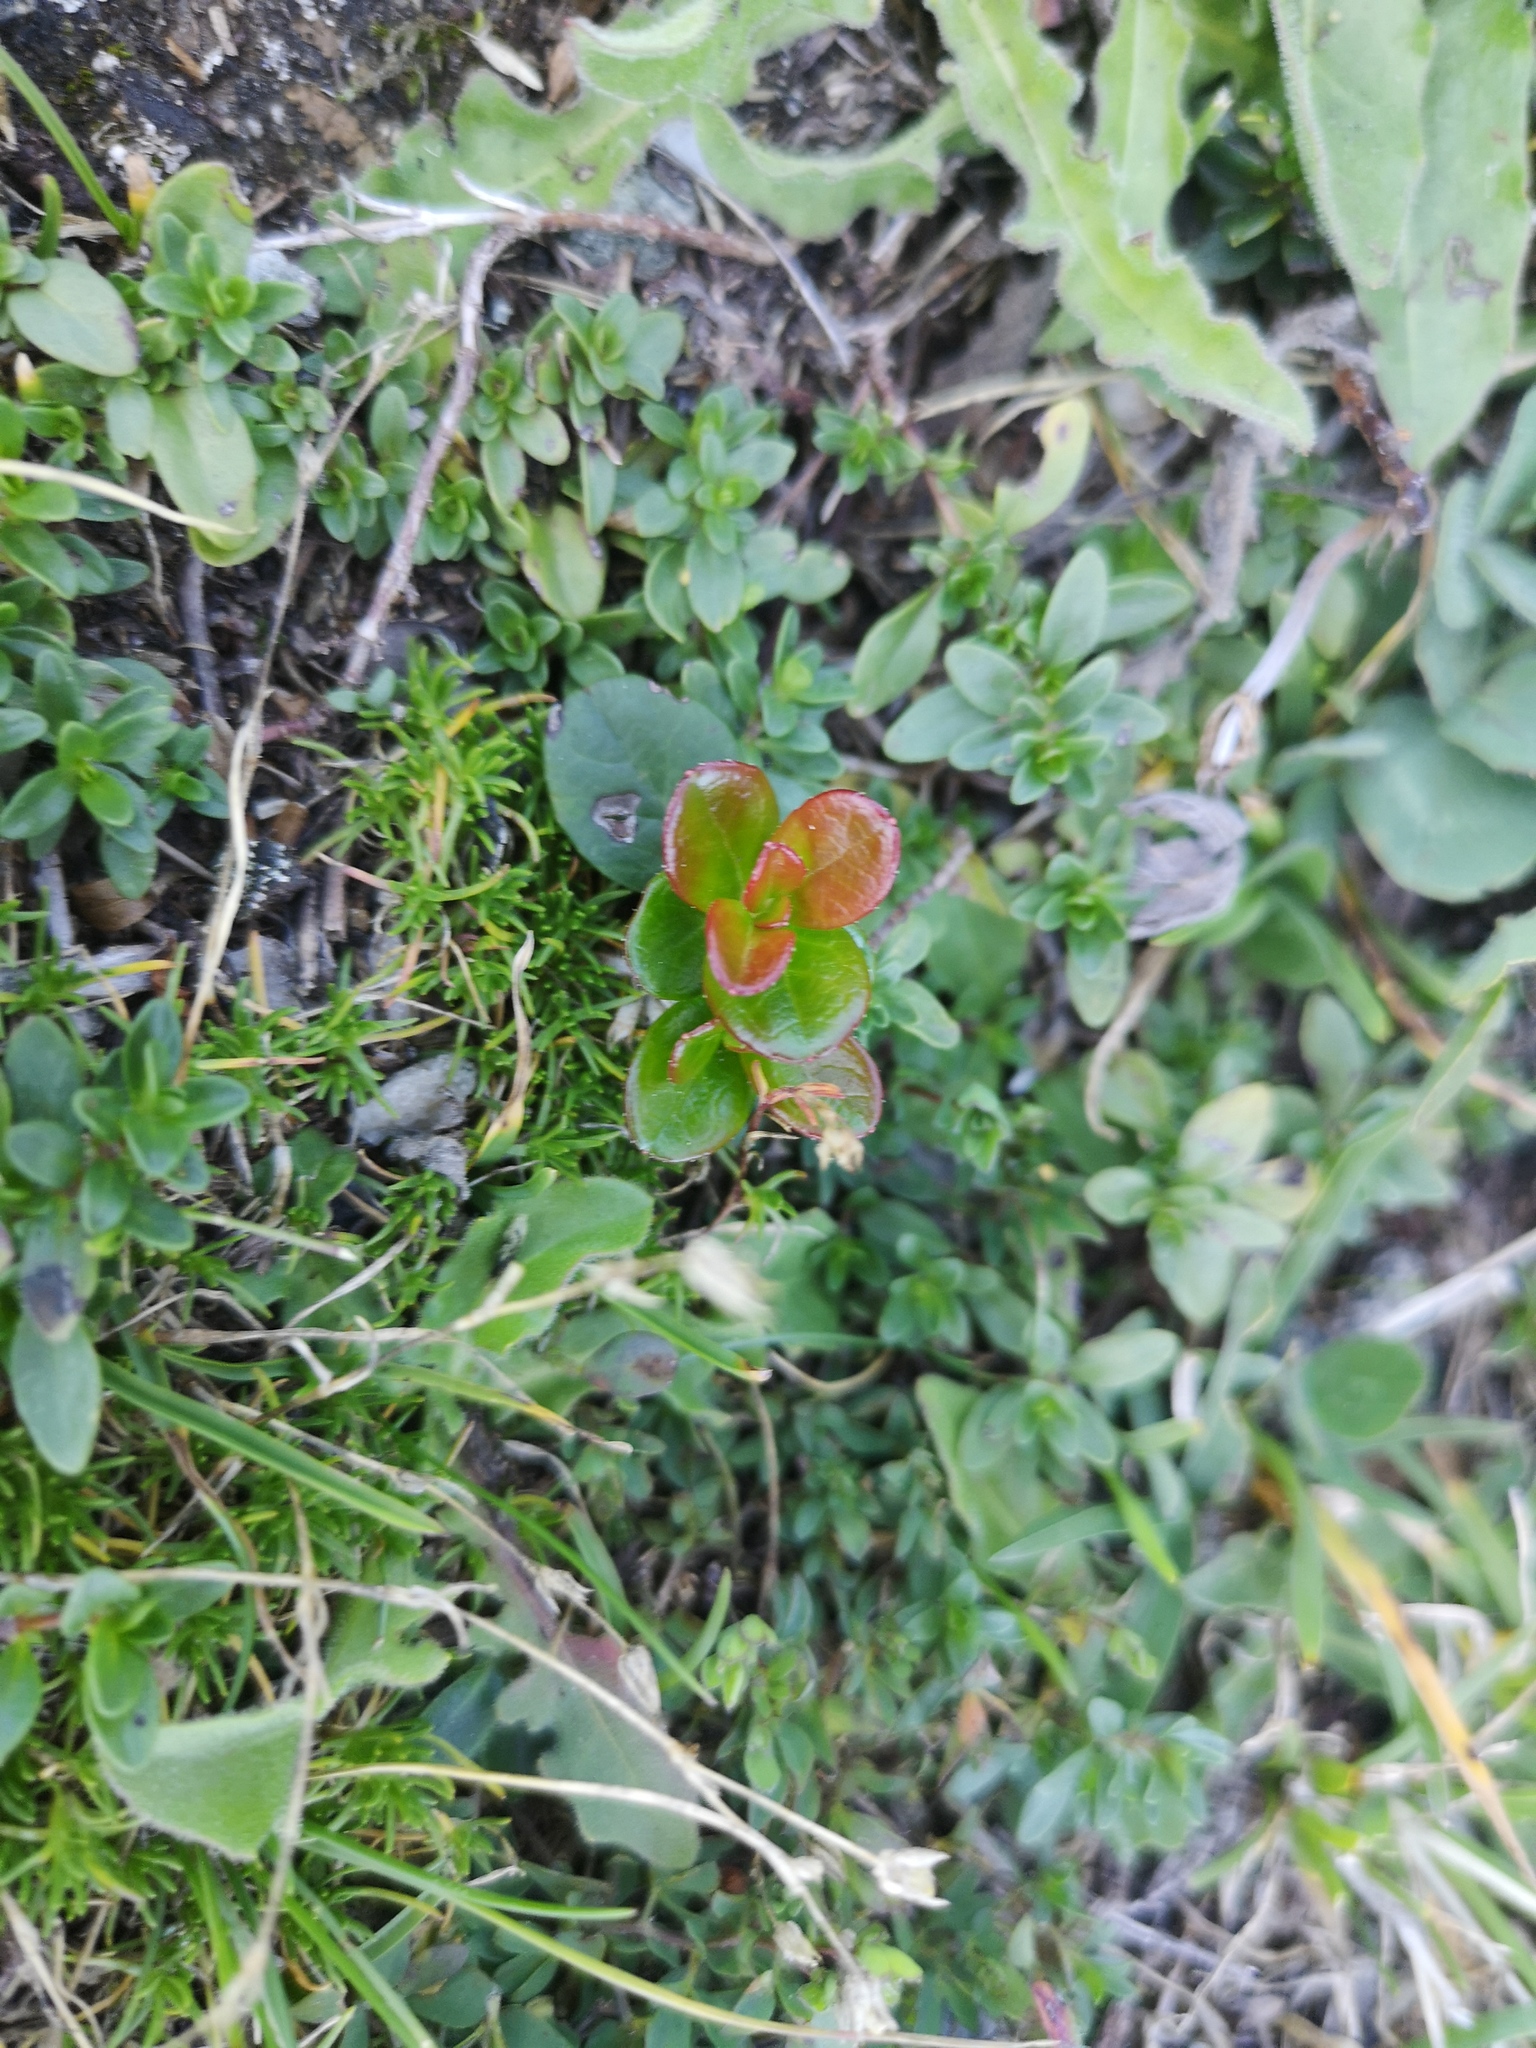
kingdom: Plantae
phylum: Tracheophyta
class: Magnoliopsida
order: Ericales
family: Ericaceae
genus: Vaccinium
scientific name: Vaccinium vitis-idaea
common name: Cowberry
